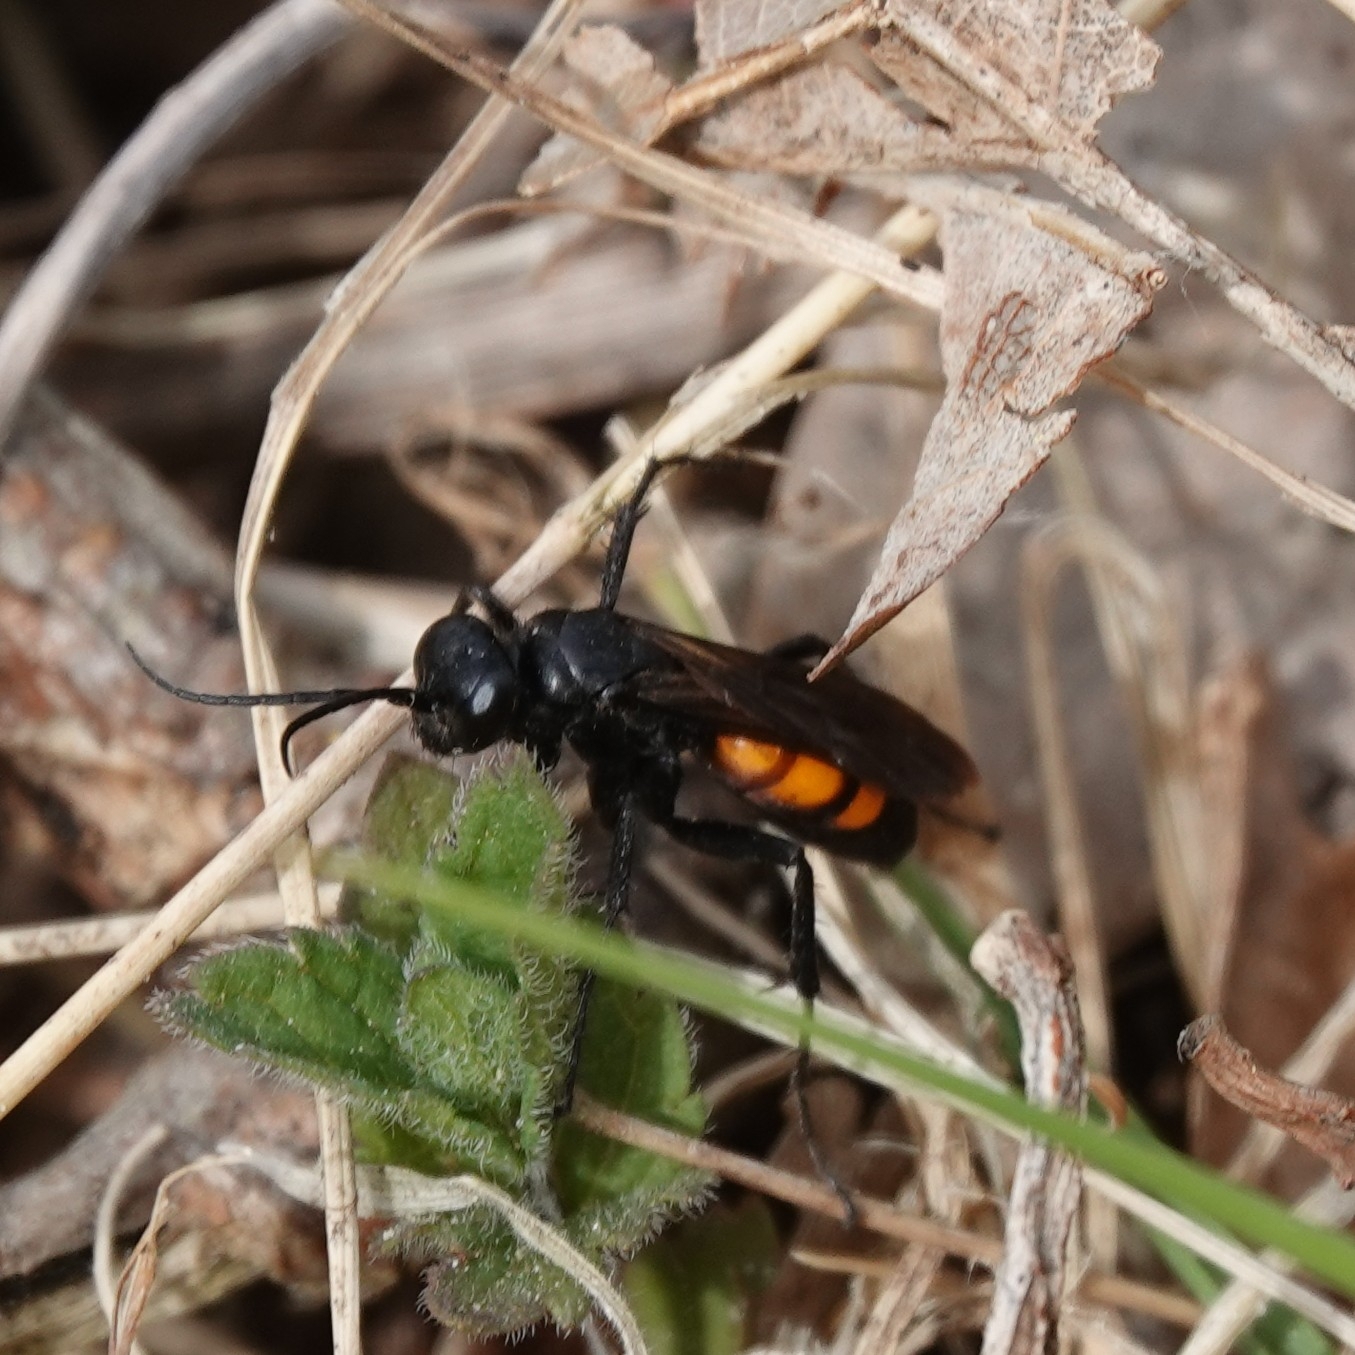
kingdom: Animalia
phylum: Arthropoda
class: Insecta
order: Hymenoptera
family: Pompilidae
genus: Anoplius
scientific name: Anoplius viaticus
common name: Black banded spider wasp
